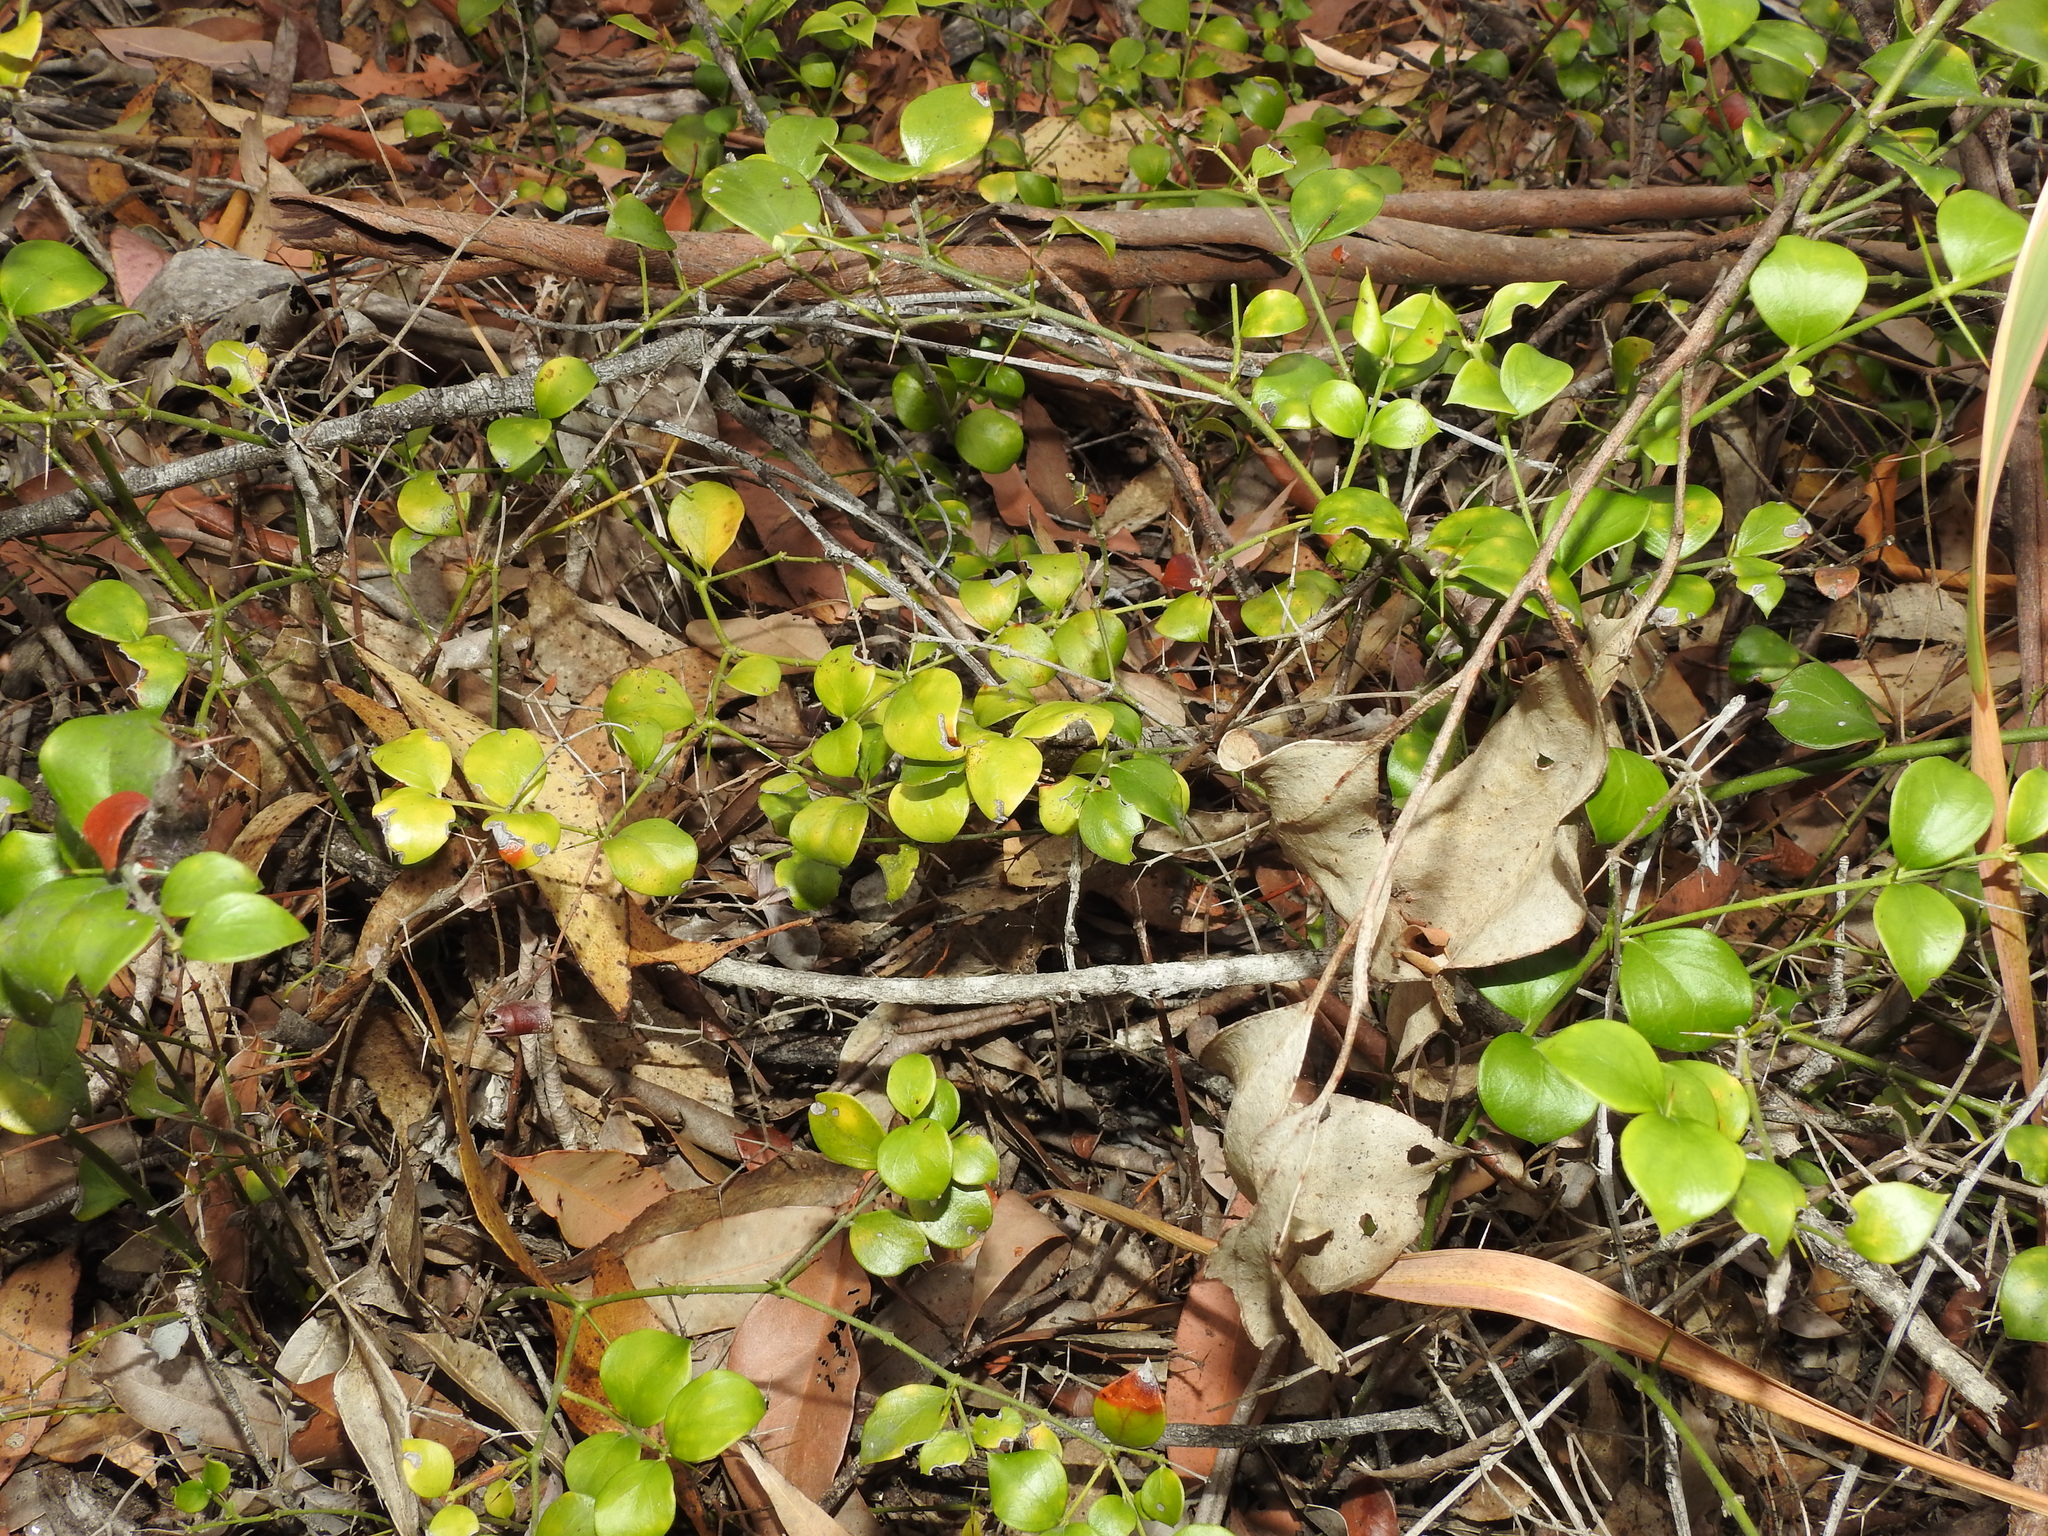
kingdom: Plantae
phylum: Tracheophyta
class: Magnoliopsida
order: Gentianales
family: Apocynaceae
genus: Carissa
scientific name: Carissa ovata
